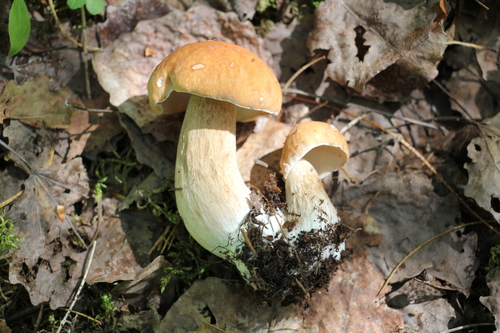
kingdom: Fungi
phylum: Basidiomycota
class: Agaricomycetes
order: Boletales
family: Boletaceae
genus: Boletus
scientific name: Boletus edulis
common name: Cep
